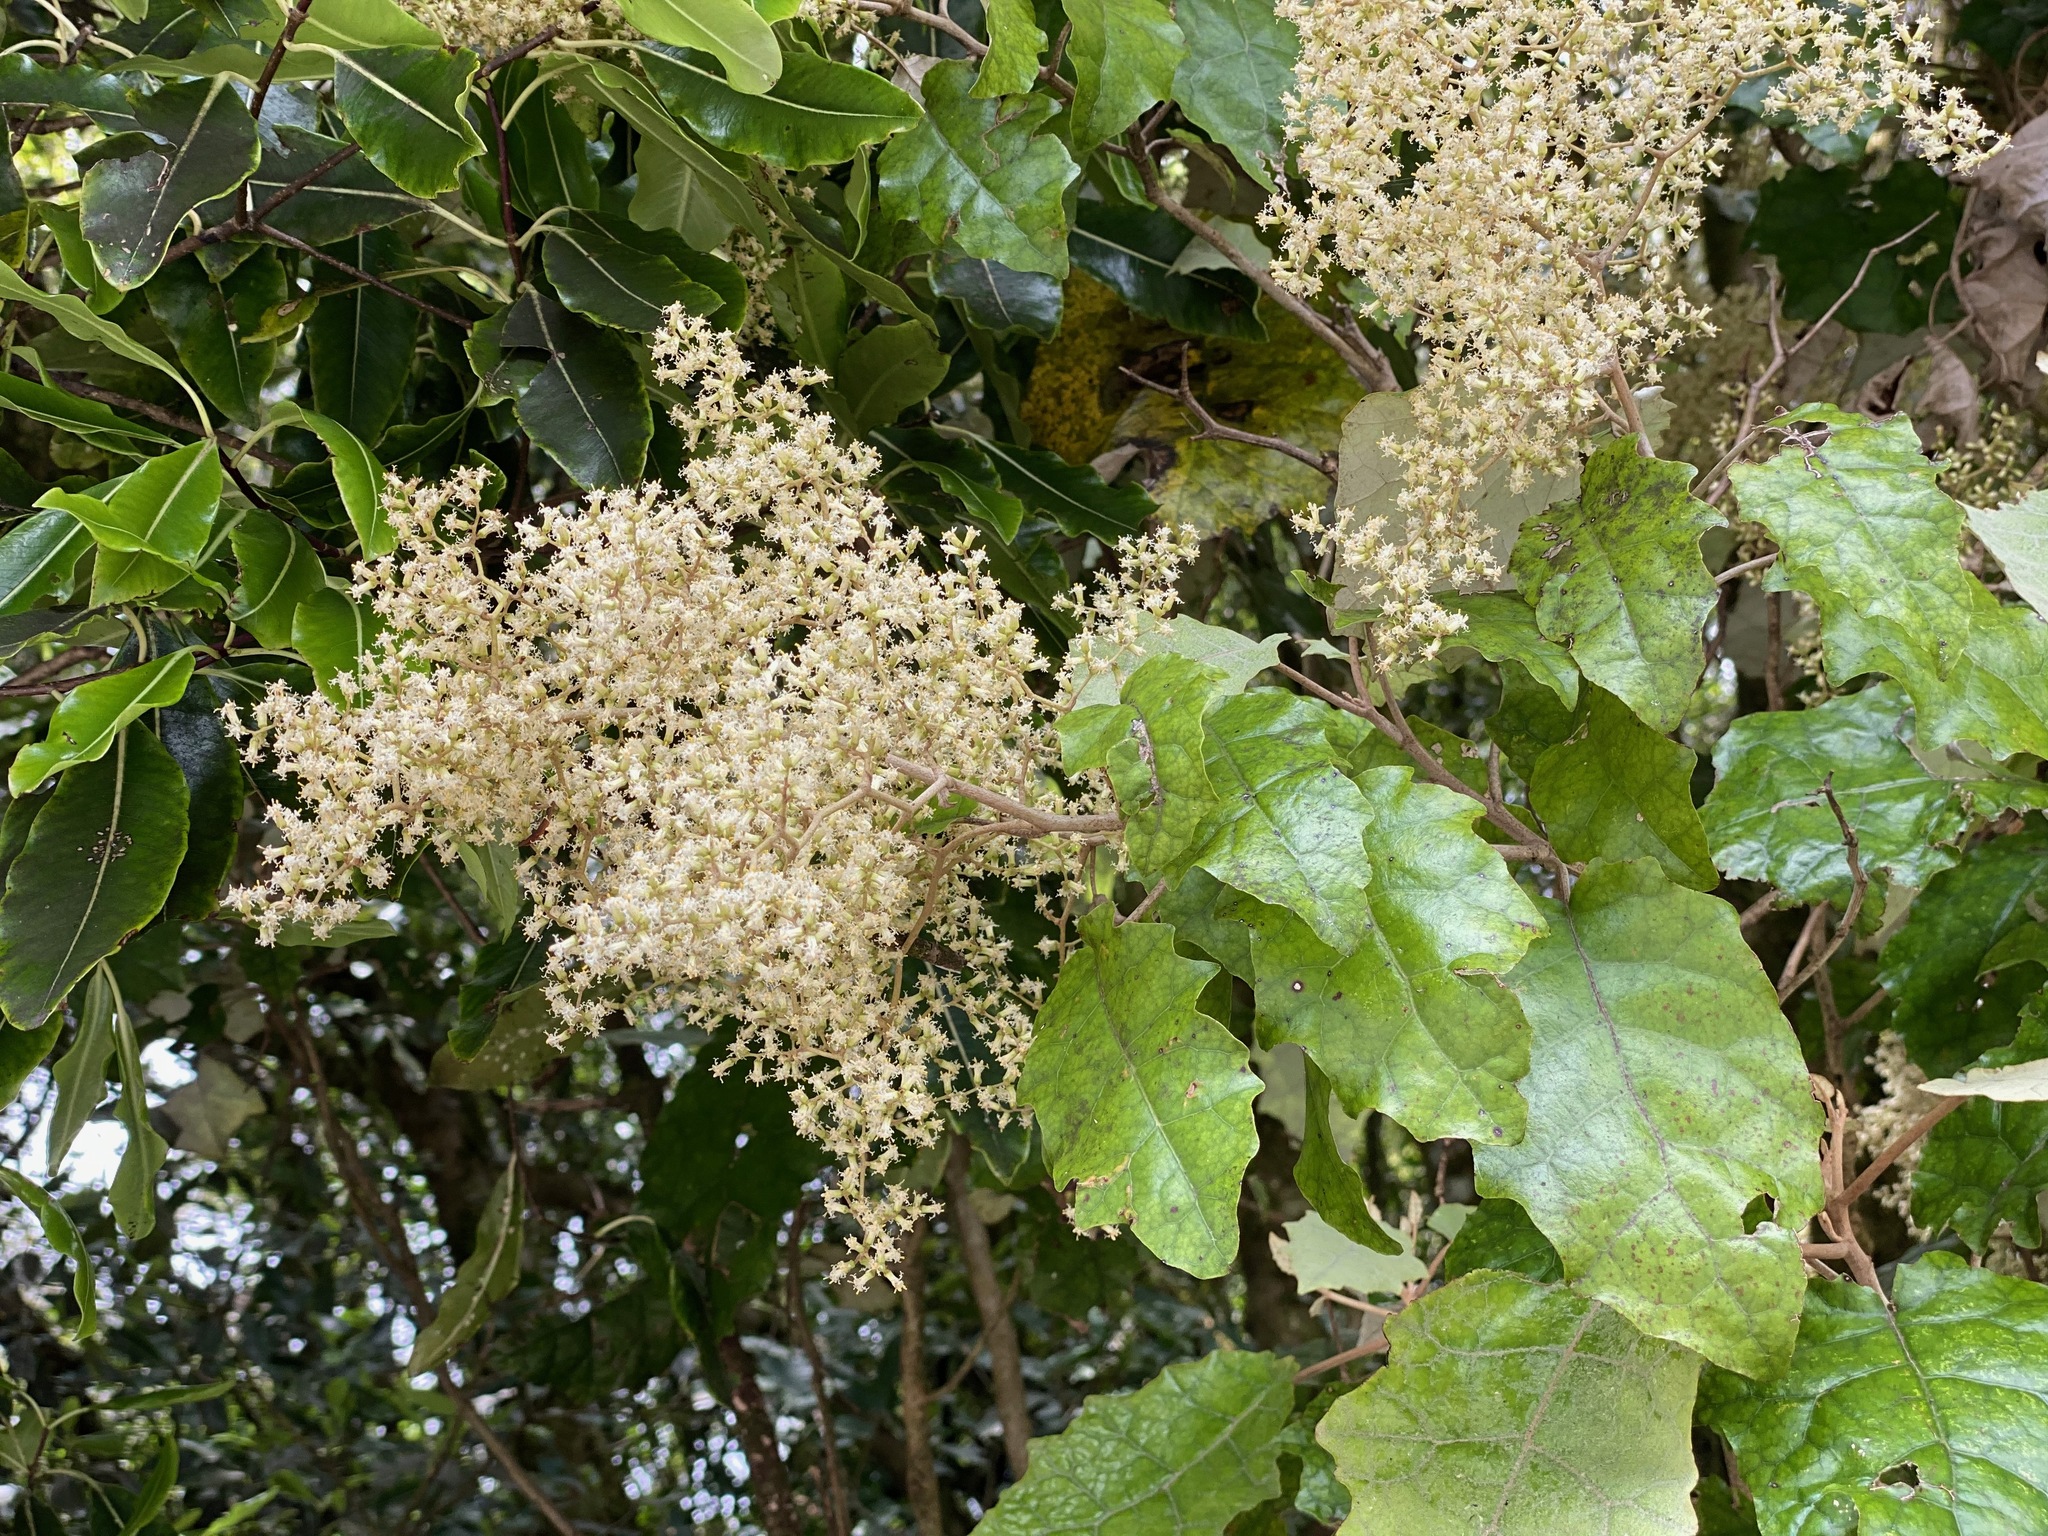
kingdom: Plantae
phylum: Tracheophyta
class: Magnoliopsida
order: Asterales
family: Asteraceae
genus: Brachyglottis
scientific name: Brachyglottis repanda
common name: Hedge ragwort
